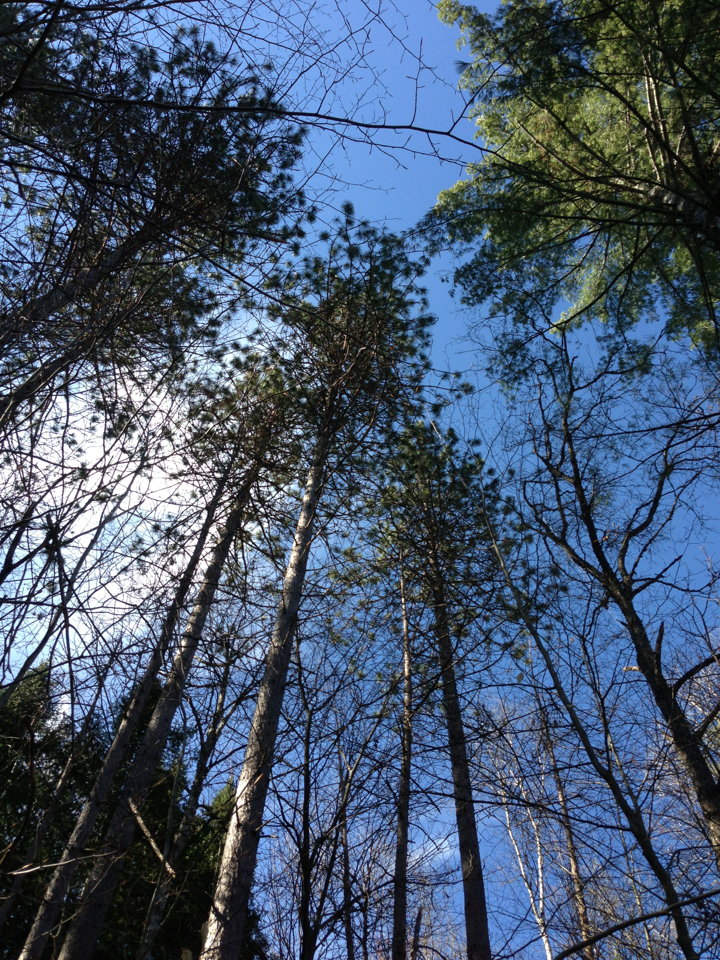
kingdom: Plantae
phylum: Tracheophyta
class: Pinopsida
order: Pinales
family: Pinaceae
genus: Pinus
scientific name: Pinus resinosa
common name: Norway pine
